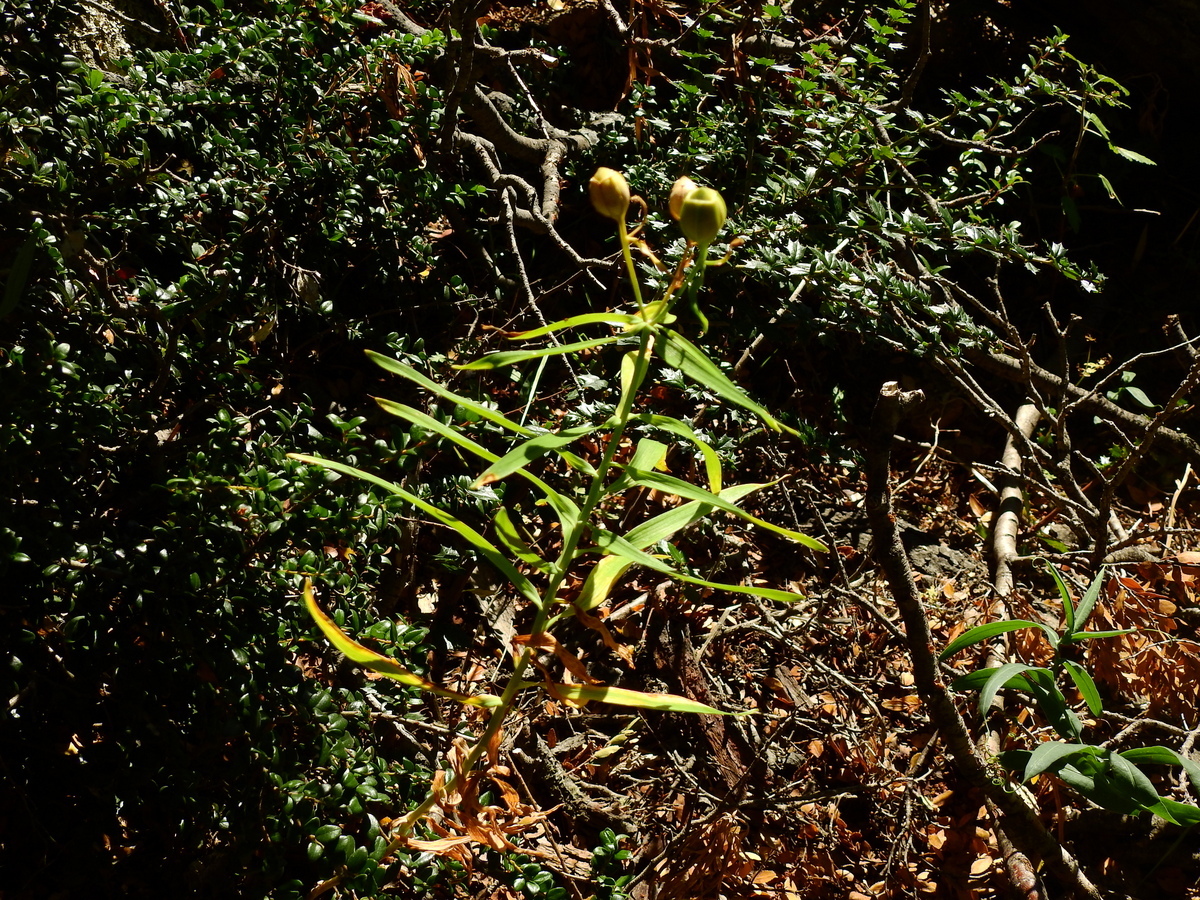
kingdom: Plantae
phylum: Tracheophyta
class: Liliopsida
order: Liliales
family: Alstroemeriaceae
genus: Alstroemeria
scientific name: Alstroemeria aurea
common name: Peruvian lily
